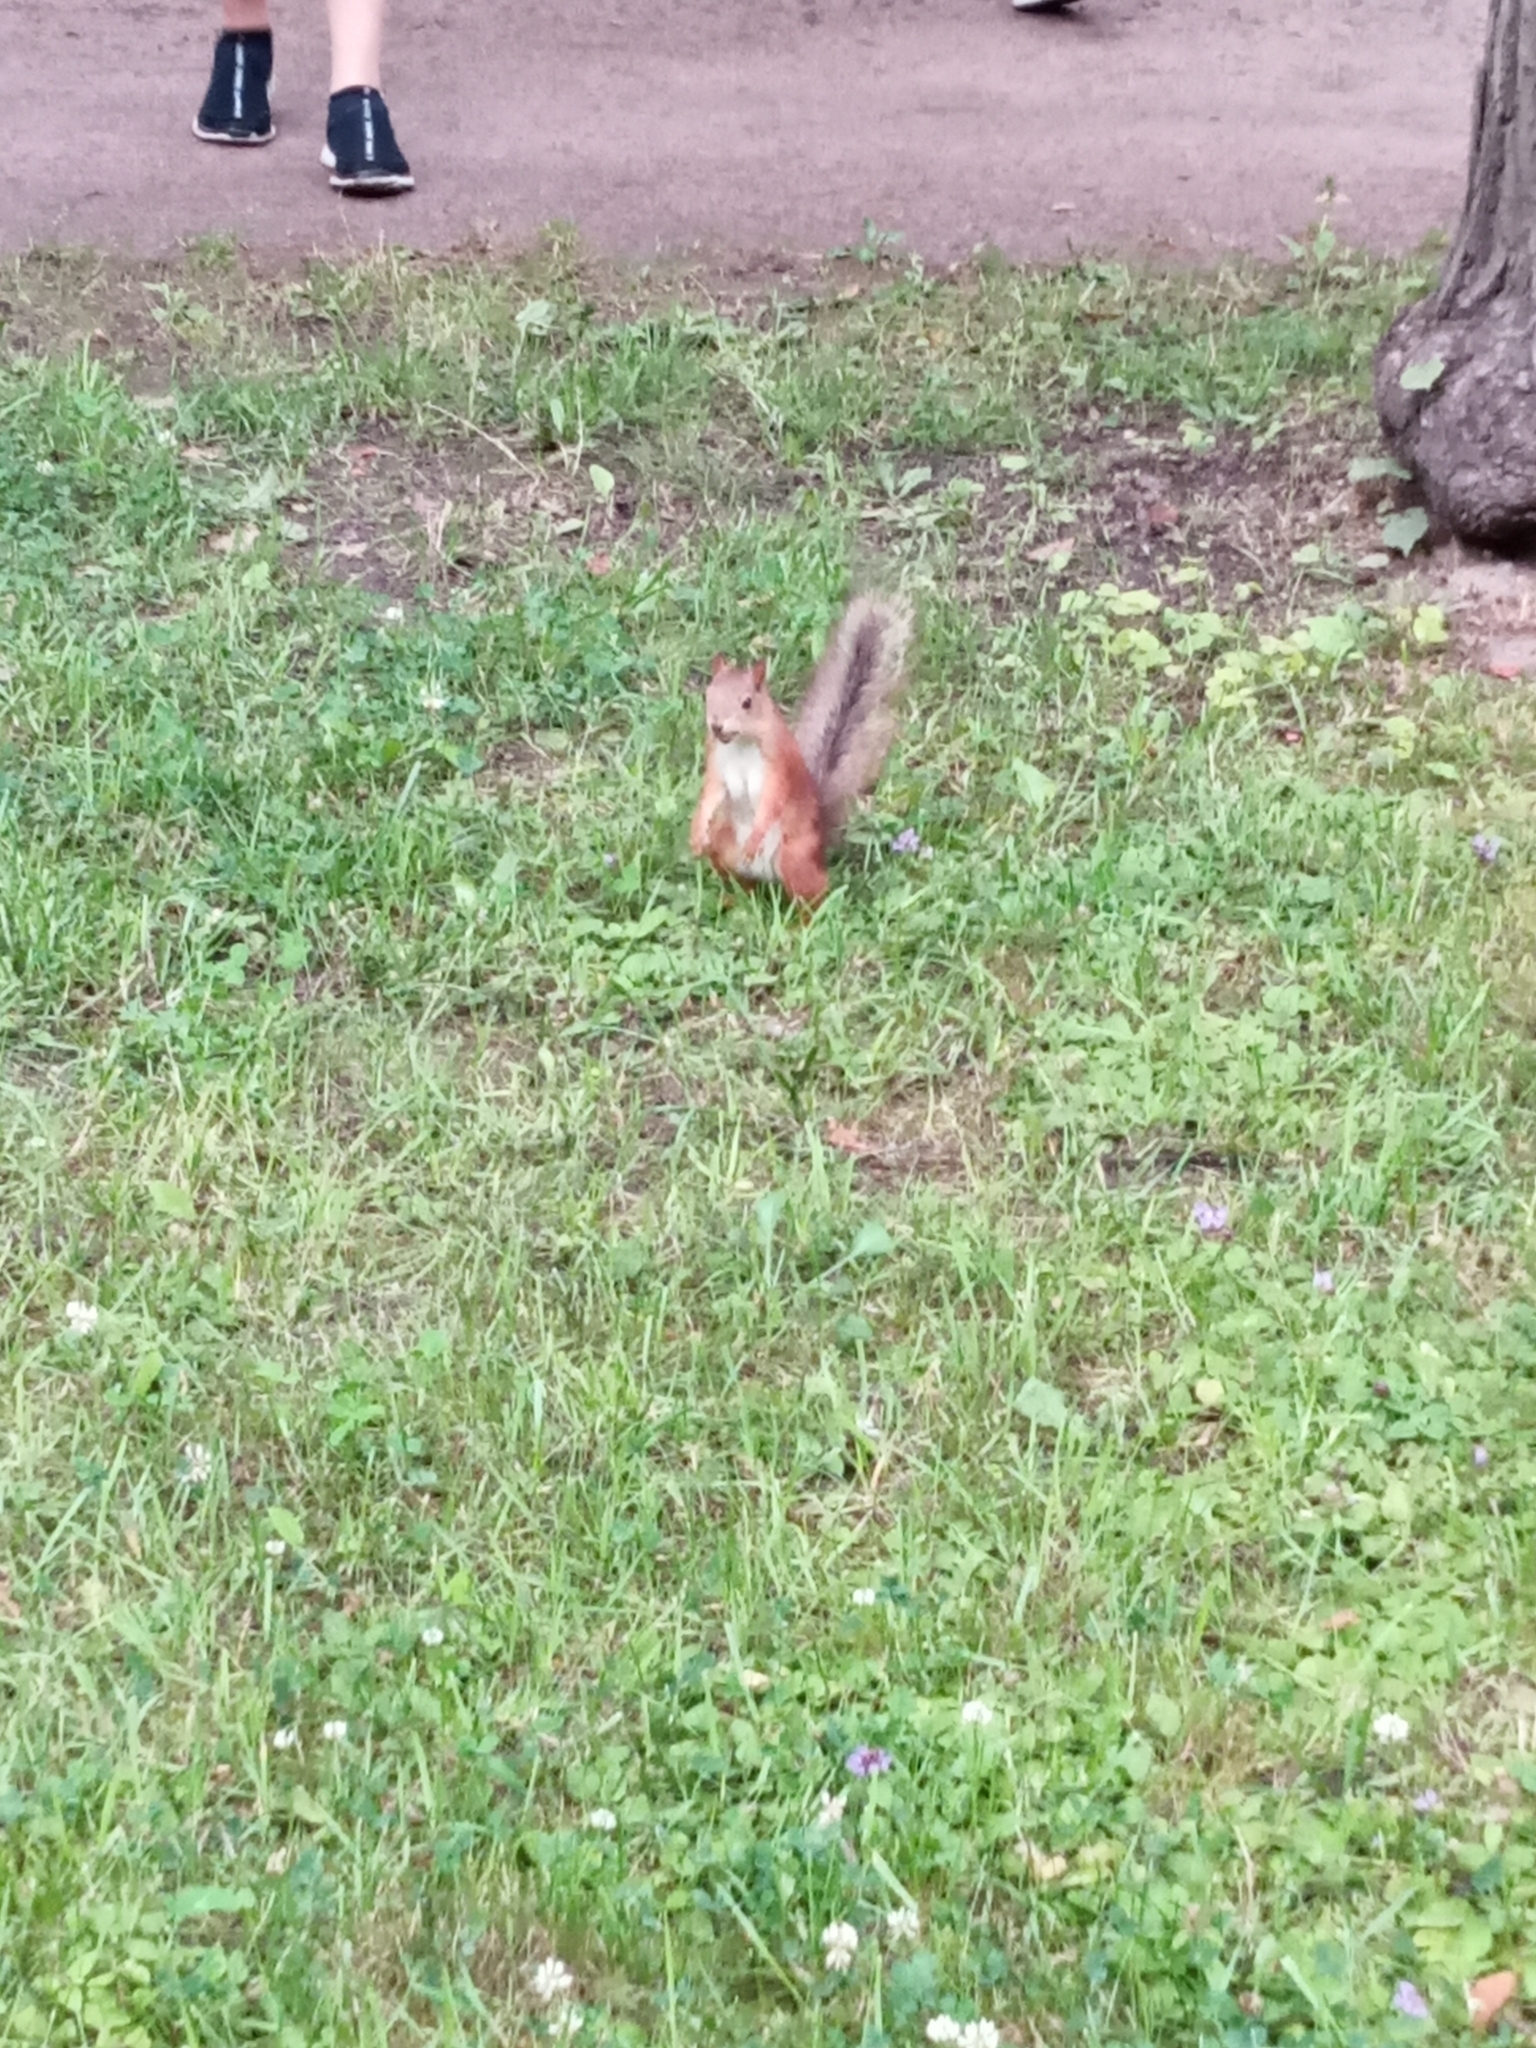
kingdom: Animalia
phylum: Chordata
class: Mammalia
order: Rodentia
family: Sciuridae
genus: Sciurus
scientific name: Sciurus vulgaris
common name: Eurasian red squirrel
